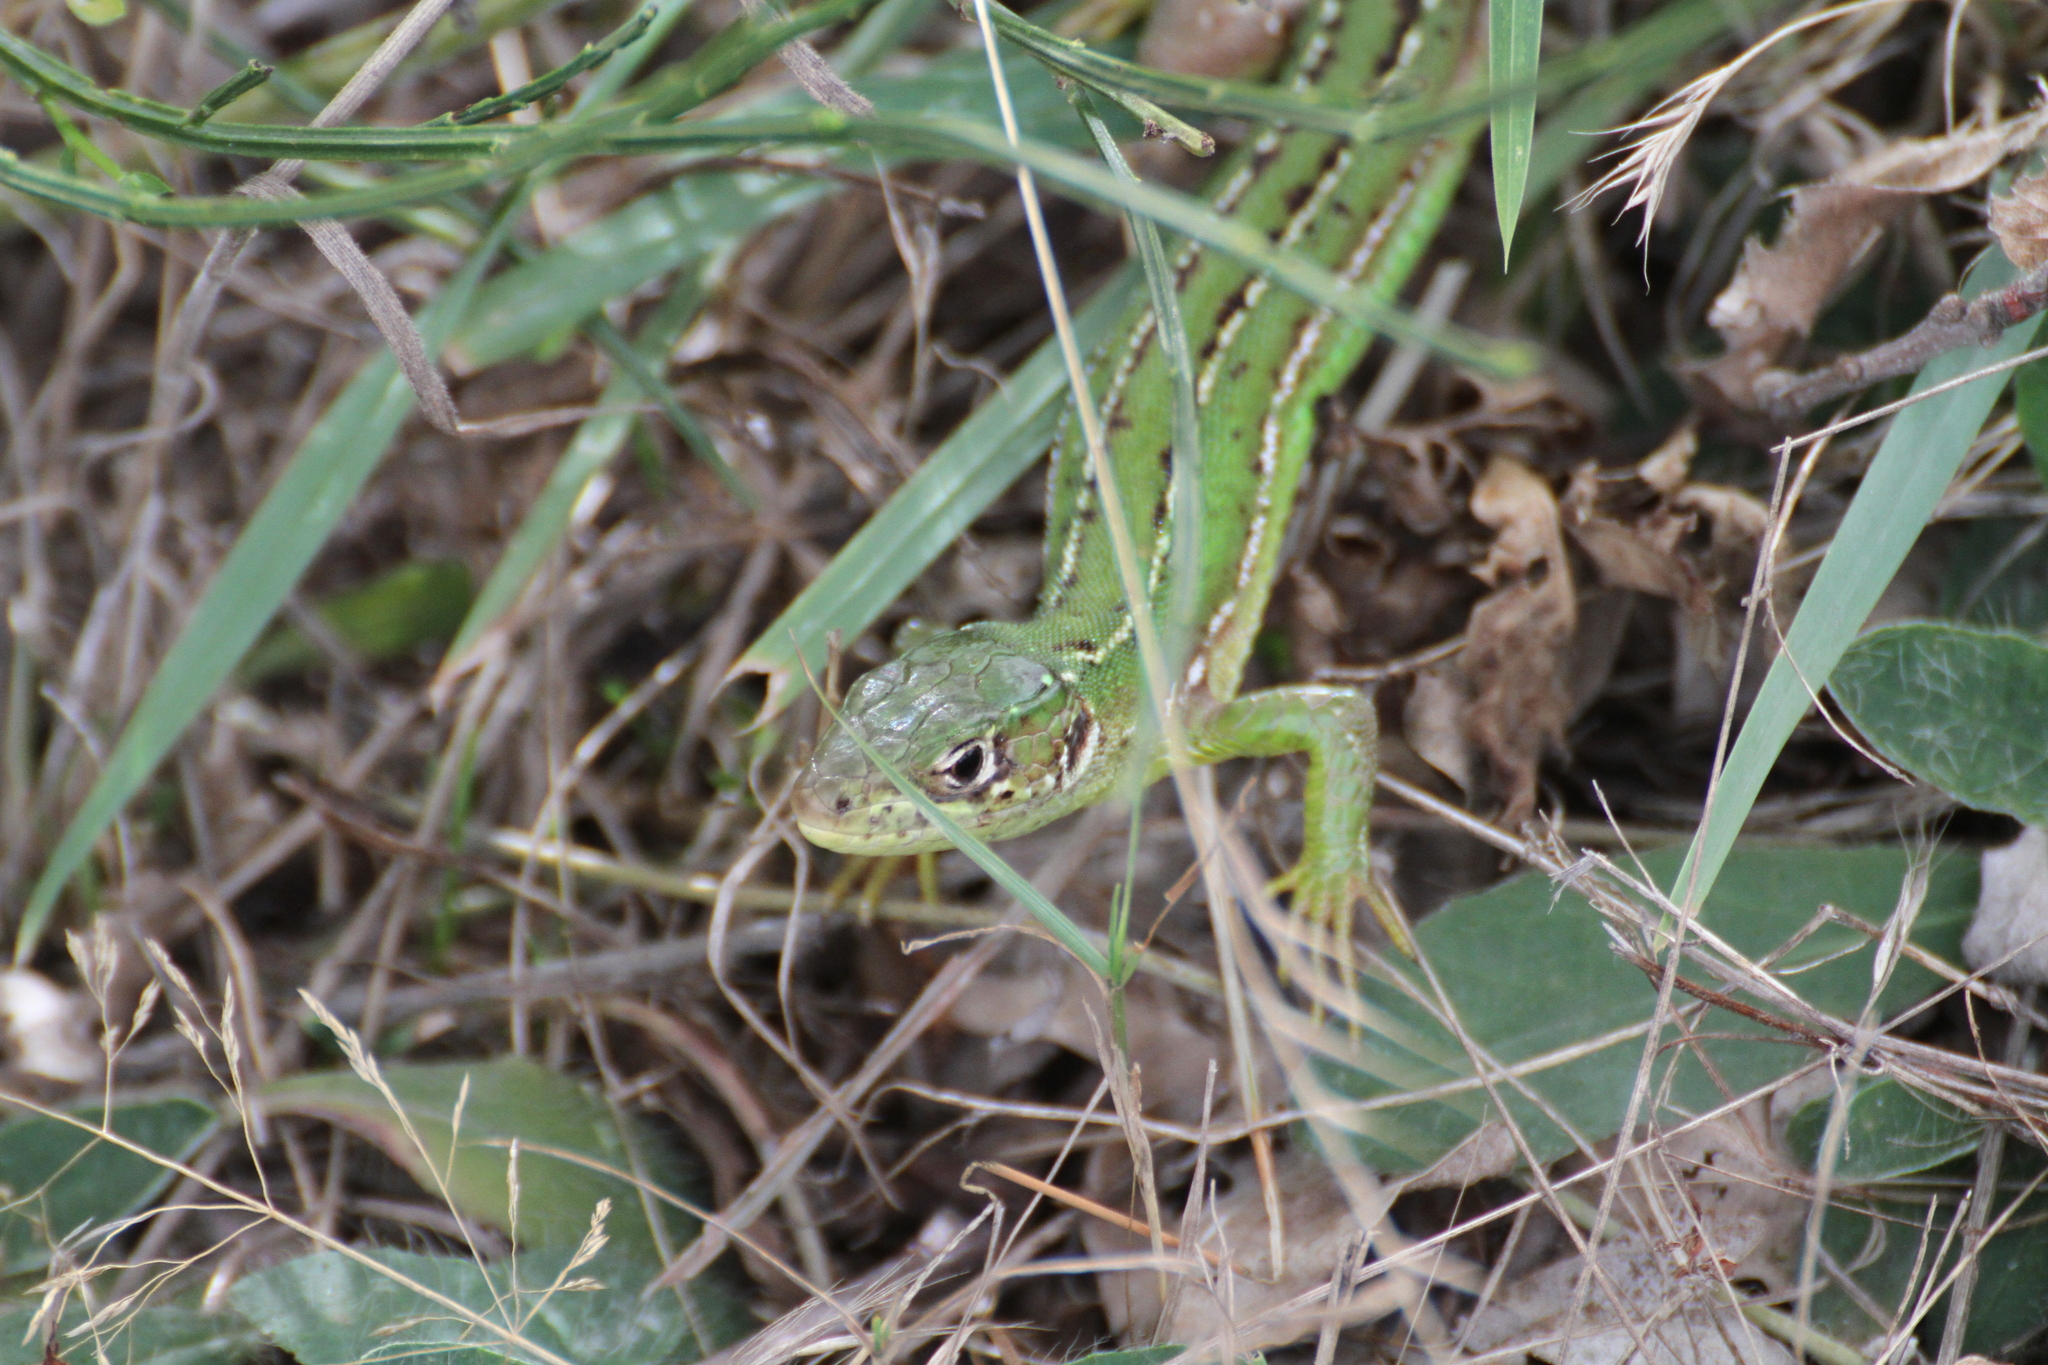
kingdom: Animalia
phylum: Chordata
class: Squamata
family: Lacertidae
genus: Lacerta
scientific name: Lacerta bilineata
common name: Western green lizard
